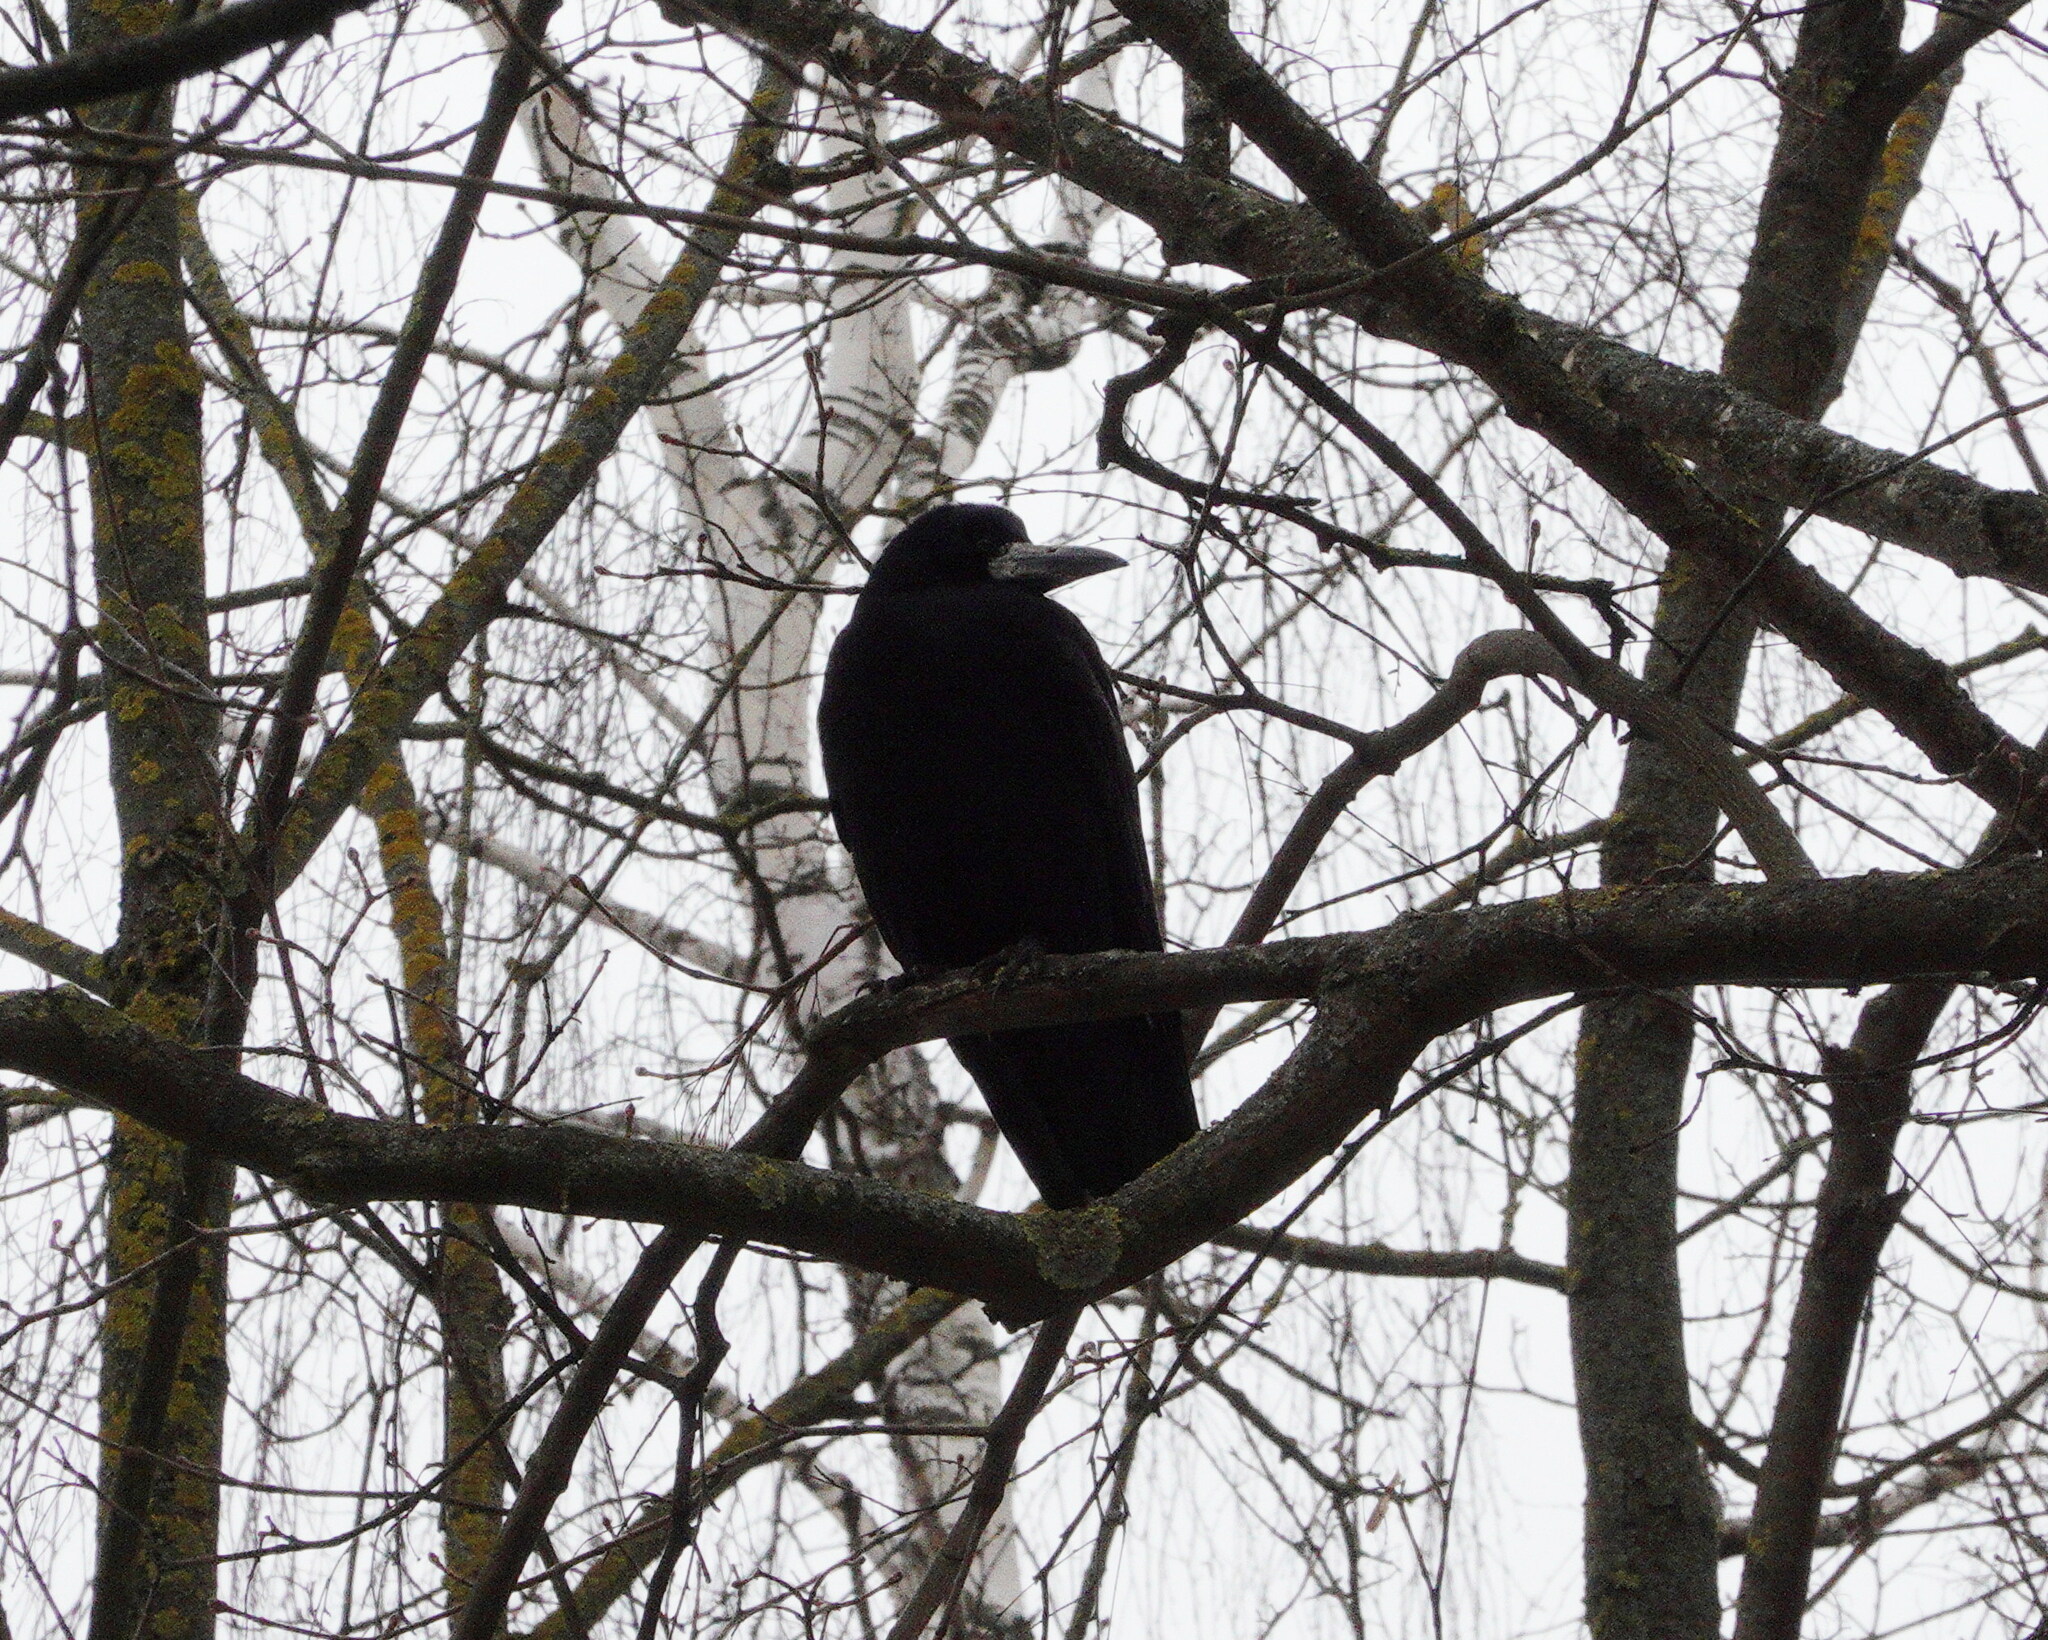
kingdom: Animalia
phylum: Chordata
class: Aves
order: Passeriformes
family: Corvidae
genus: Corvus
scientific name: Corvus frugilegus
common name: Rook
